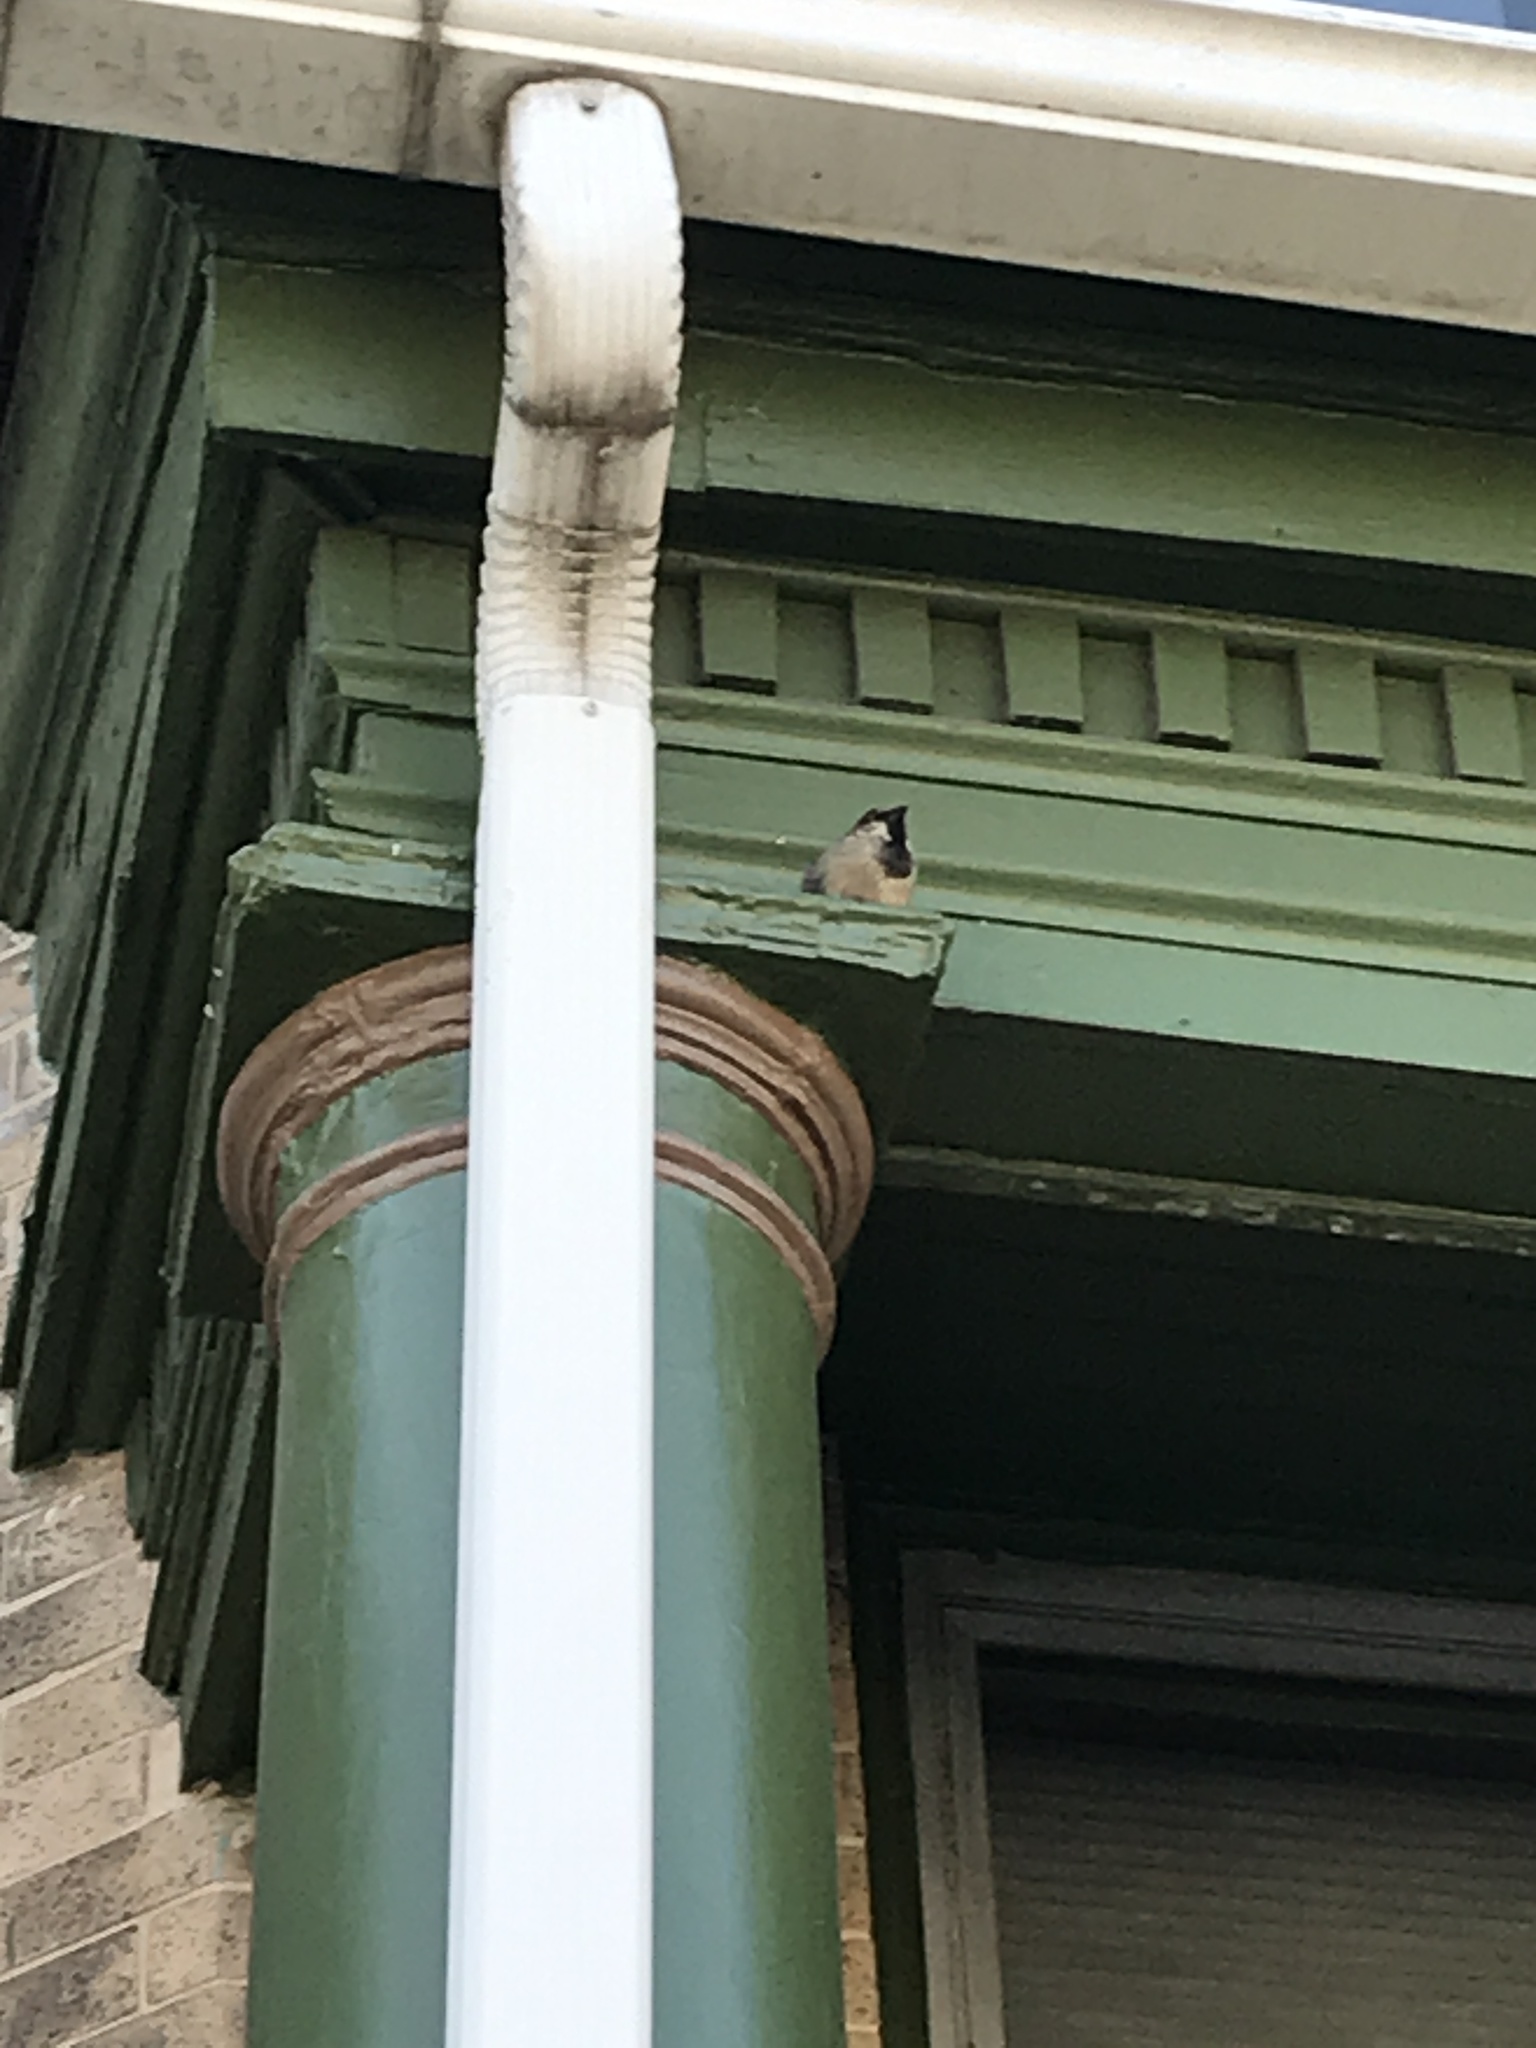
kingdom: Animalia
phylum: Chordata
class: Aves
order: Passeriformes
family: Passeridae
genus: Passer
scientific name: Passer domesticus
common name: House sparrow
